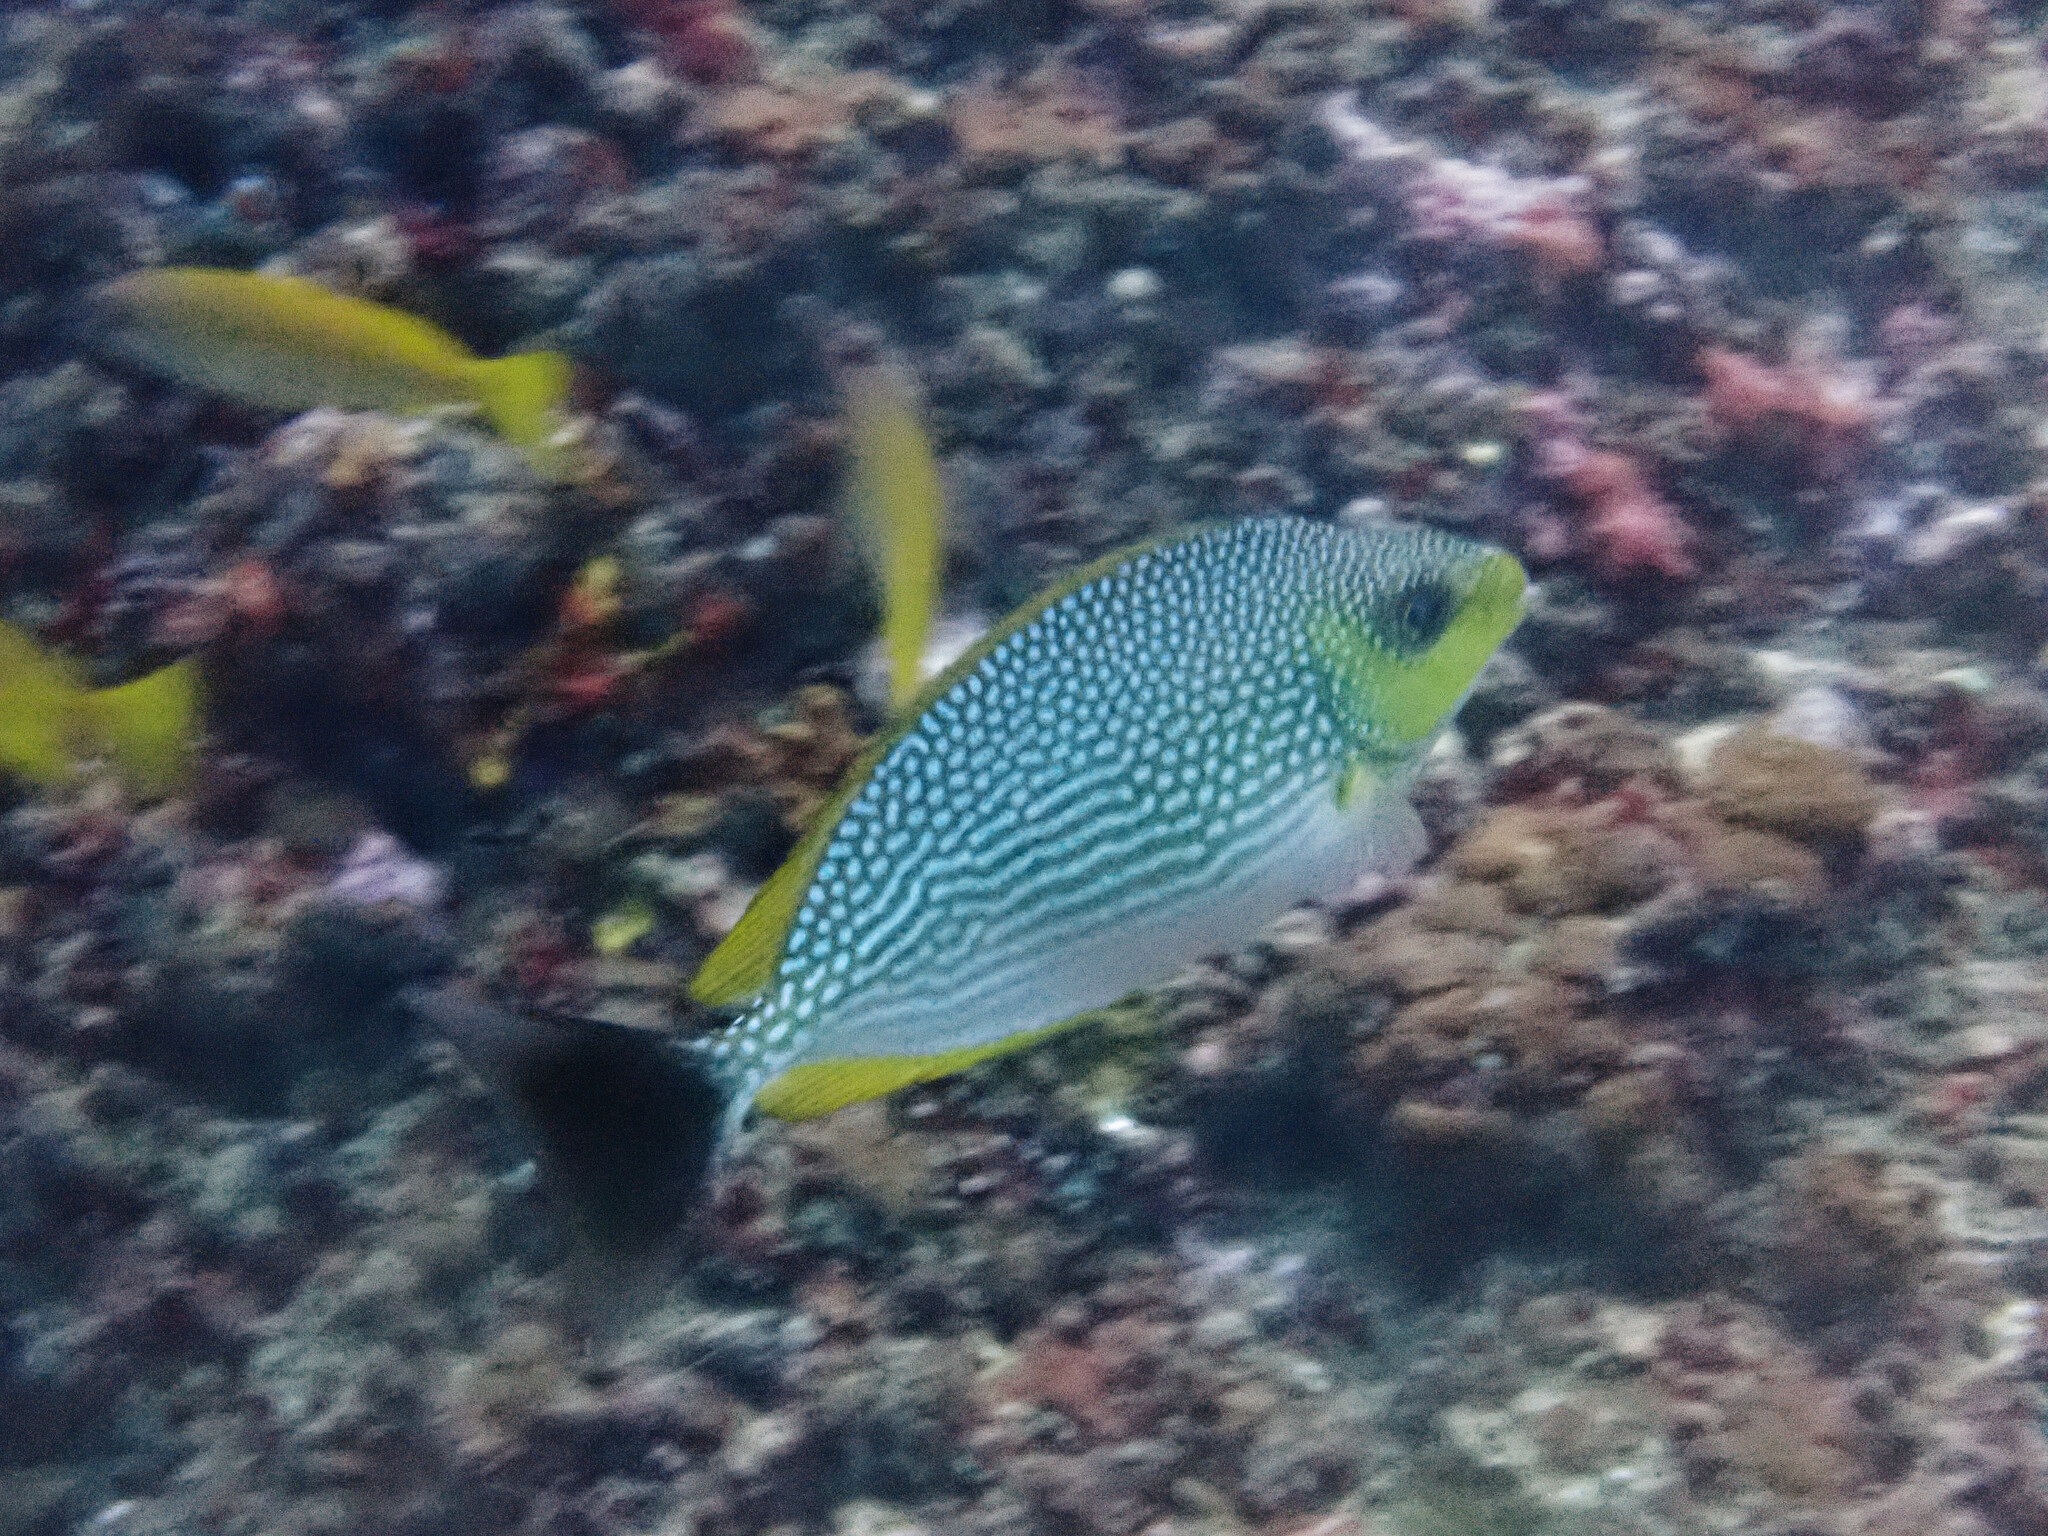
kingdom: Animalia
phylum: Chordata
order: Perciformes
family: Siganidae
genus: Siganus
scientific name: Siganus javus
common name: Java rabbitfish
